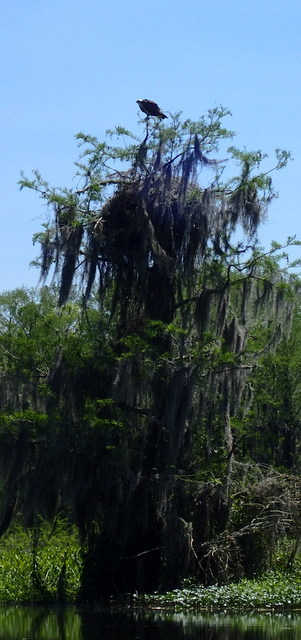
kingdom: Animalia
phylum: Chordata
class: Aves
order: Accipitriformes
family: Pandionidae
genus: Pandion
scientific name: Pandion haliaetus
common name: Osprey
